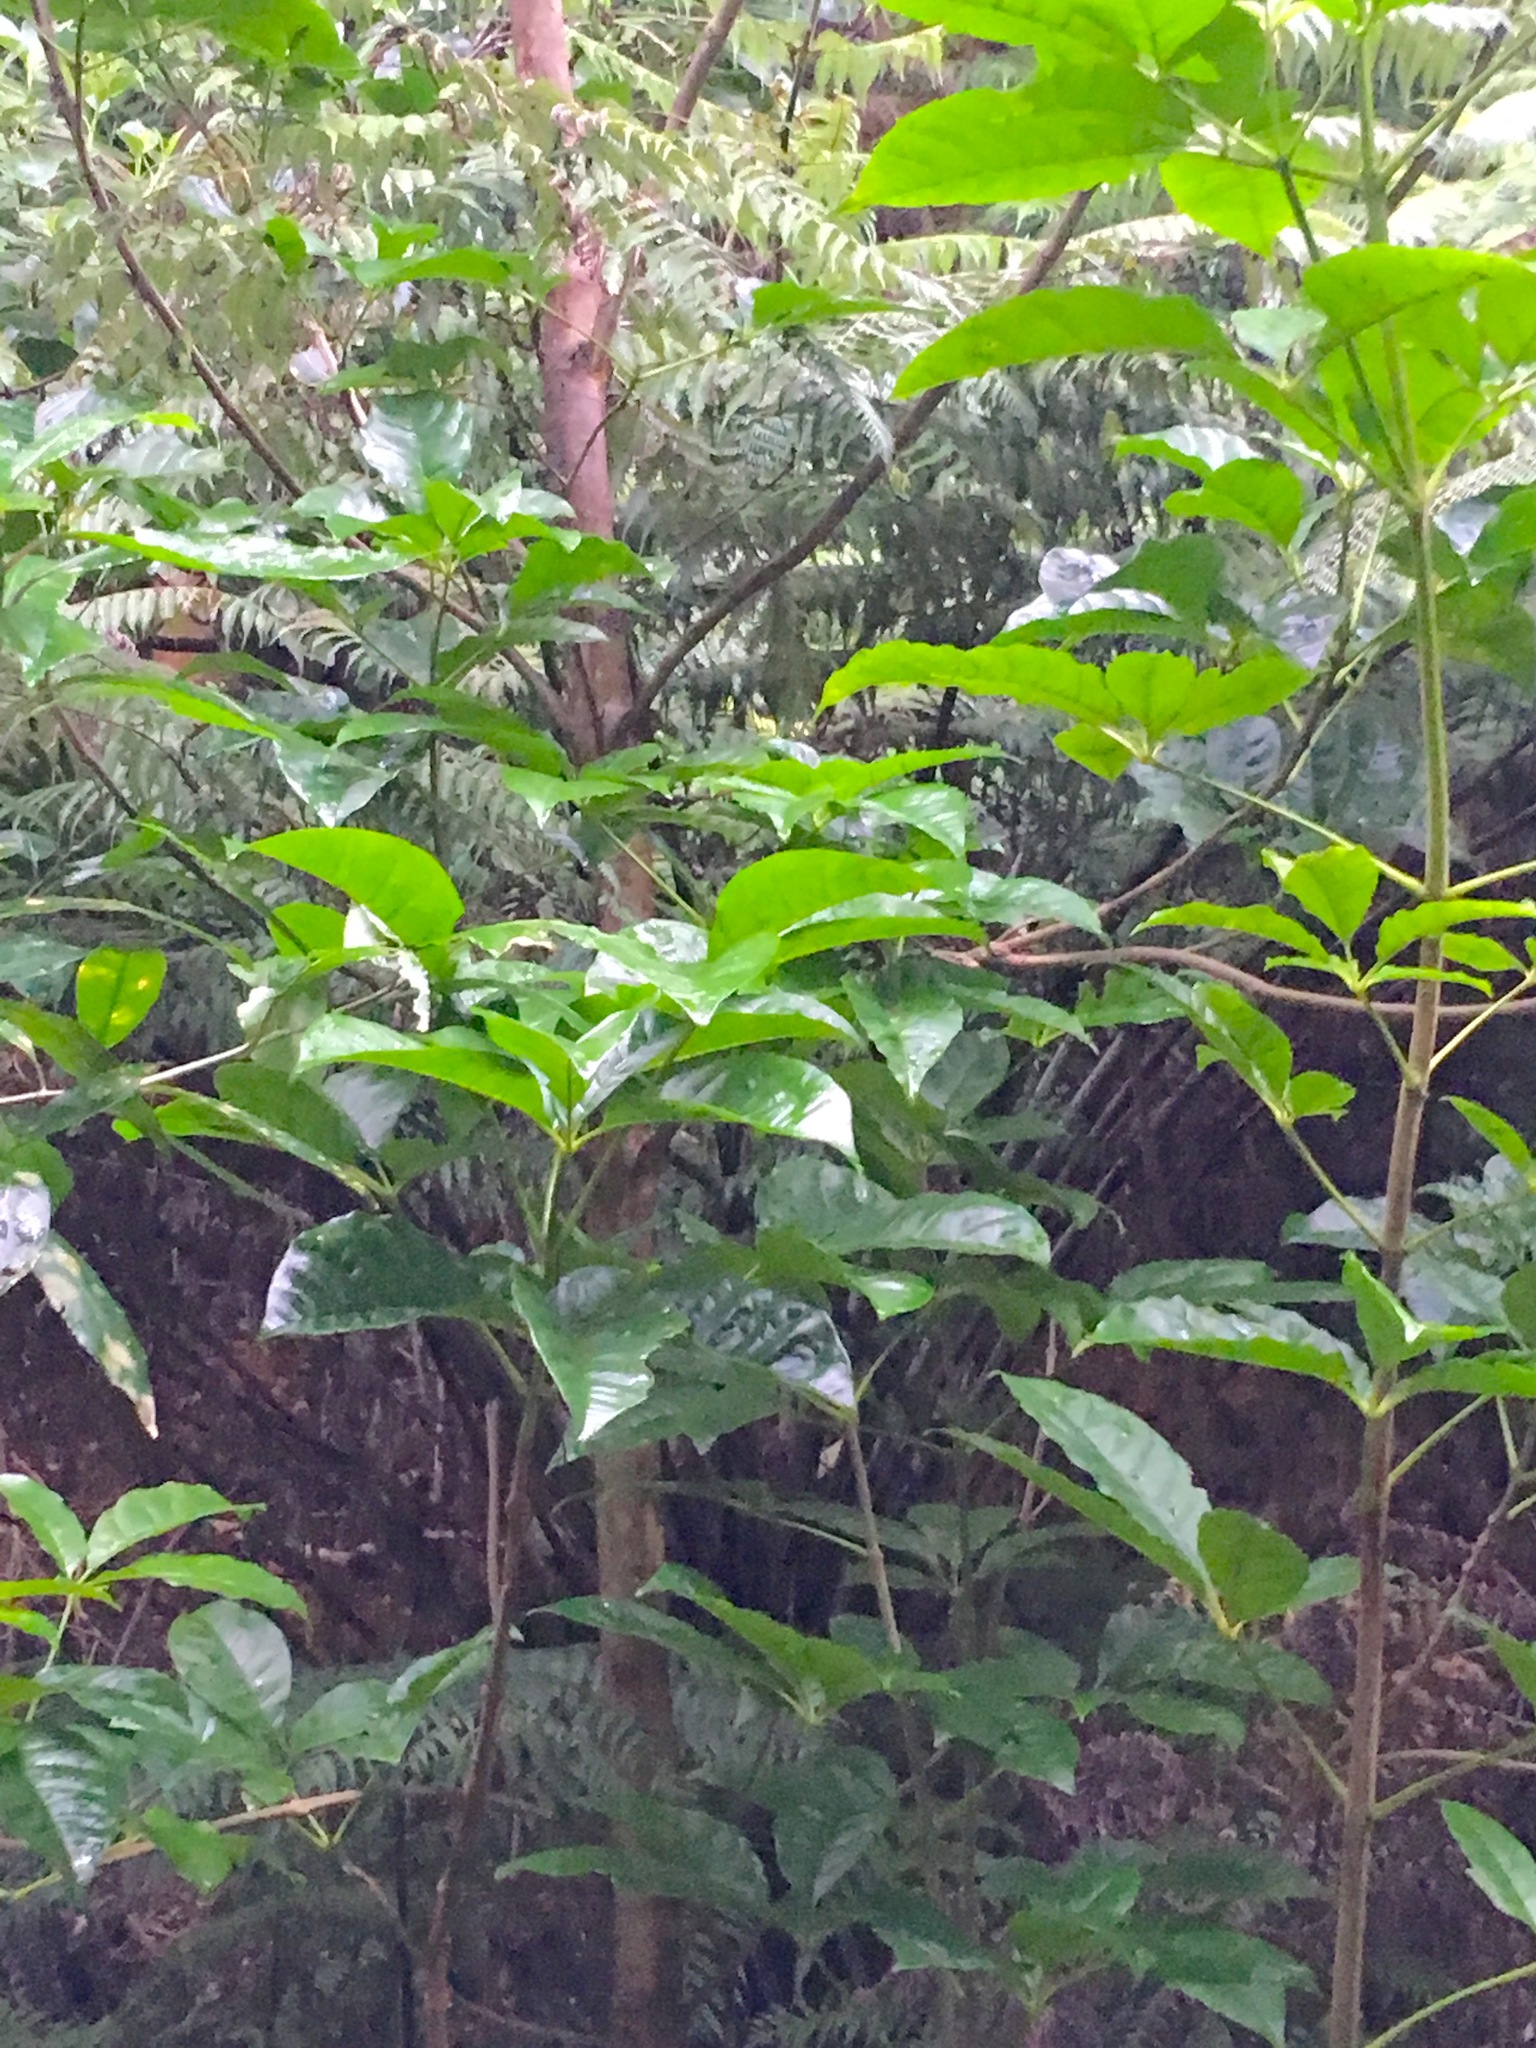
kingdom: Plantae
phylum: Tracheophyta
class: Magnoliopsida
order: Lamiales
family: Lamiaceae
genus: Vitex
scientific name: Vitex lucens
